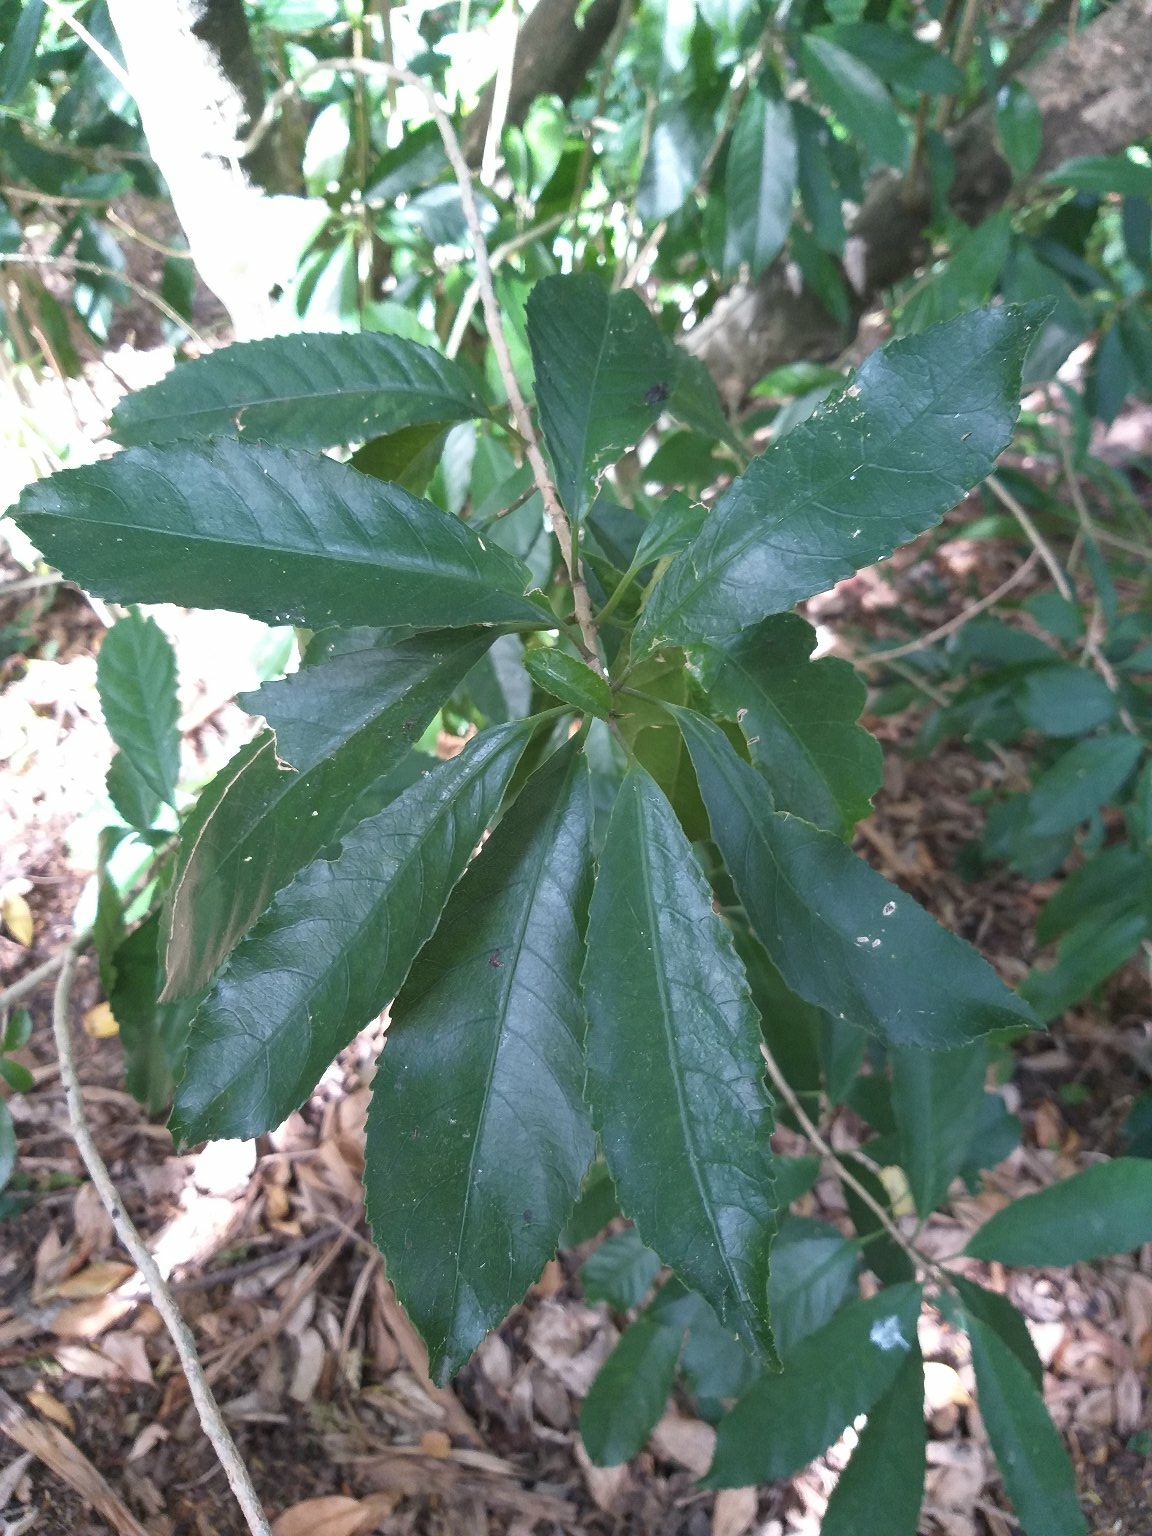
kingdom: Plantae
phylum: Tracheophyta
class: Magnoliopsida
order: Malpighiales
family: Violaceae
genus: Melicytus
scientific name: Melicytus ramiflorus
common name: Mahoe
